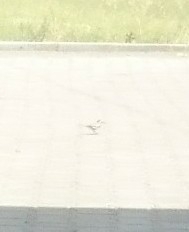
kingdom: Animalia
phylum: Chordata
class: Aves
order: Passeriformes
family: Motacillidae
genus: Motacilla
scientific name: Motacilla alba
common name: White wagtail
